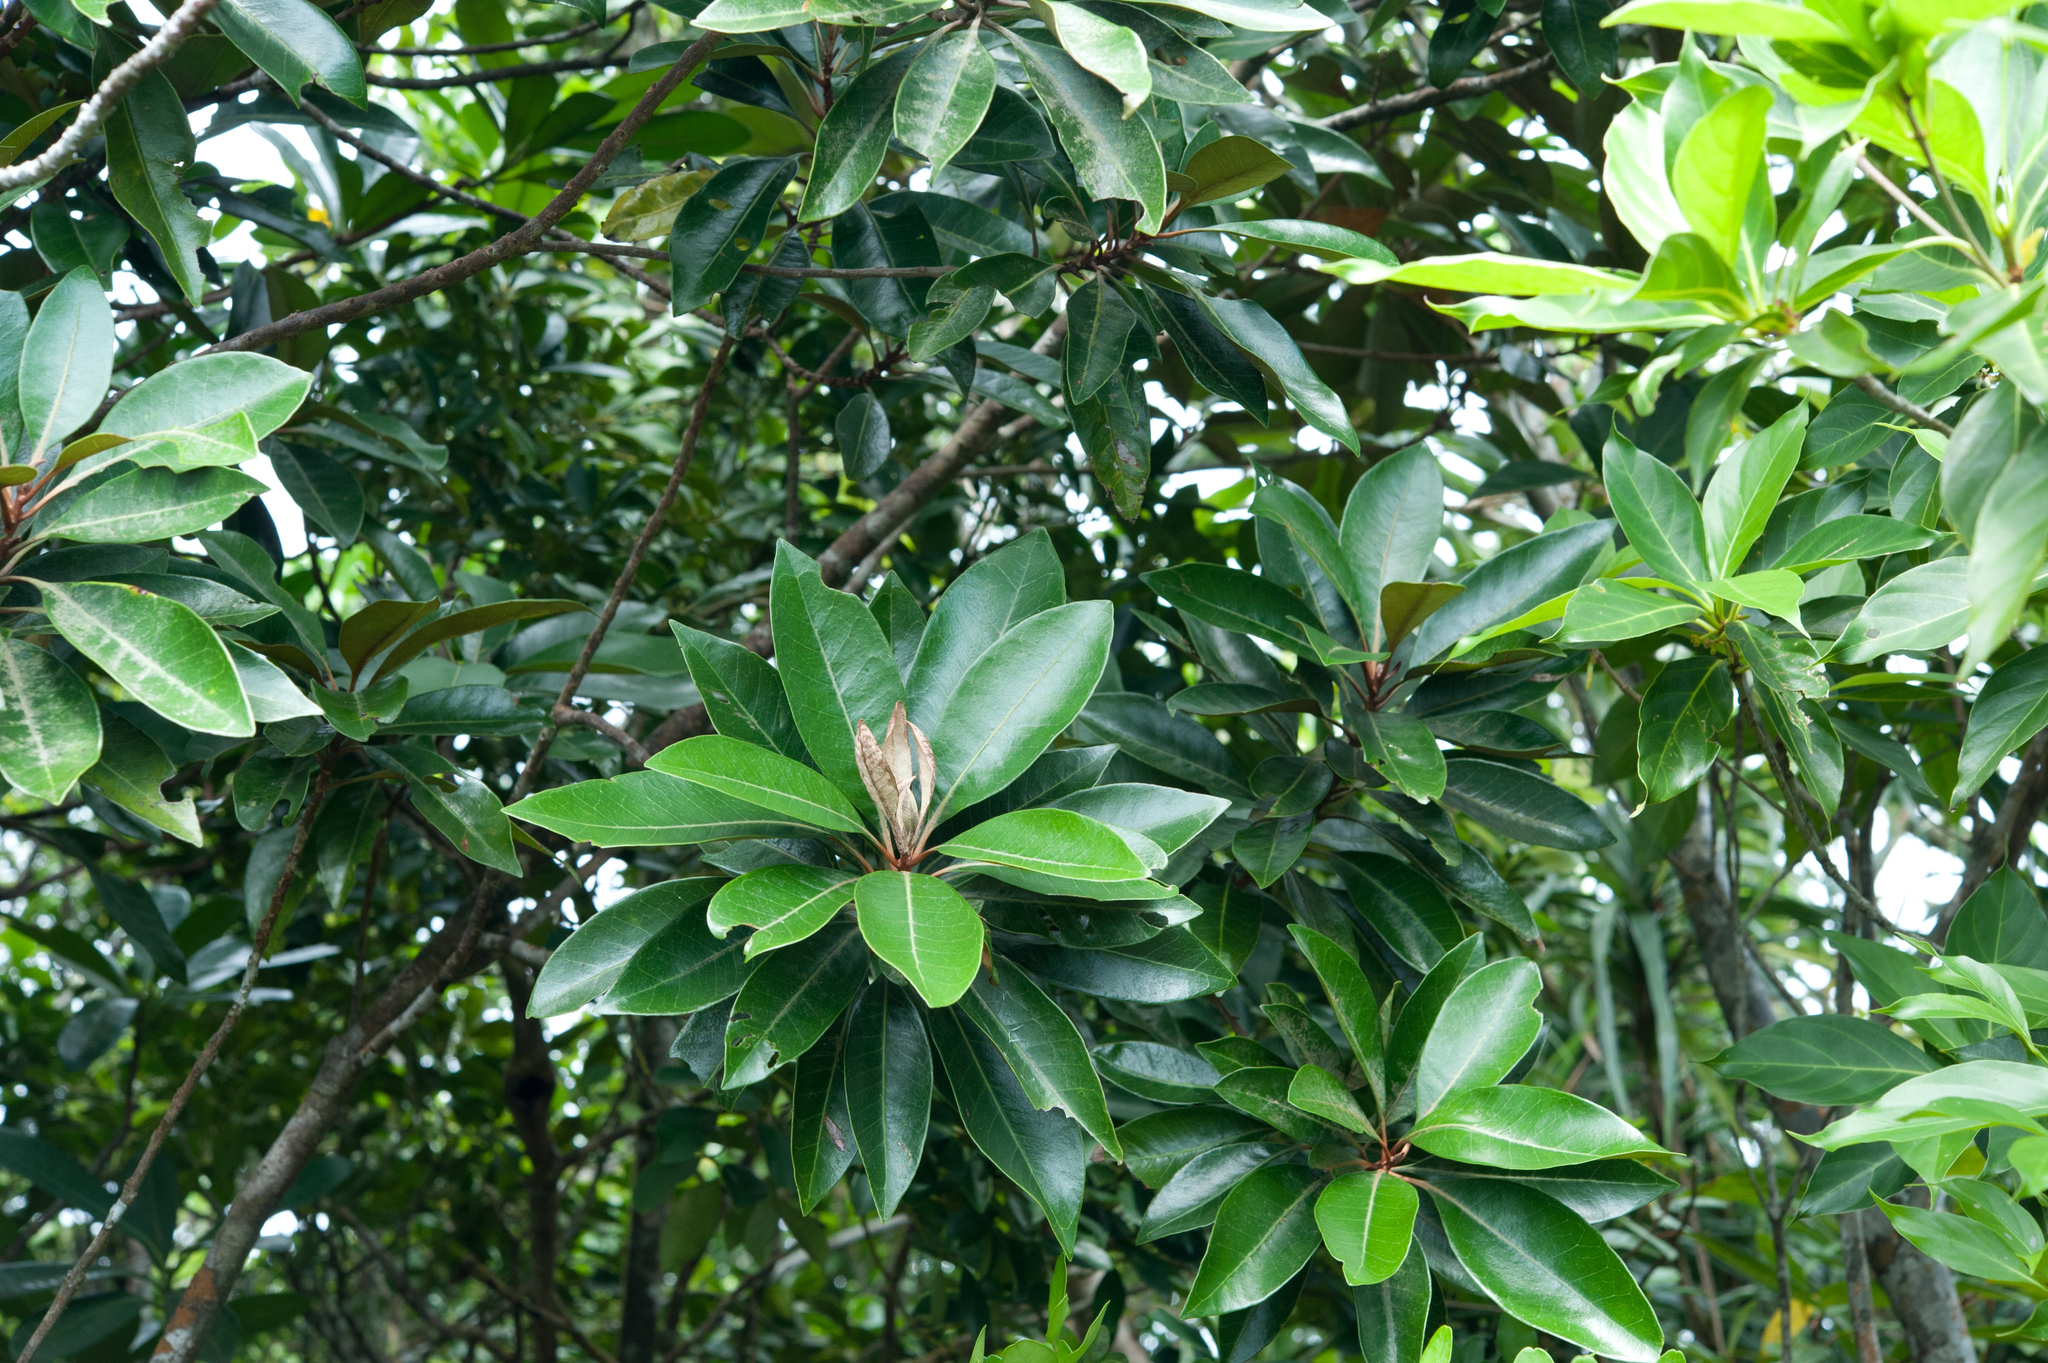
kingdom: Plantae
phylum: Tracheophyta
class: Magnoliopsida
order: Ericales
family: Sapotaceae
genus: Planchonella
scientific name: Planchonella obovata
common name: Black-ash
